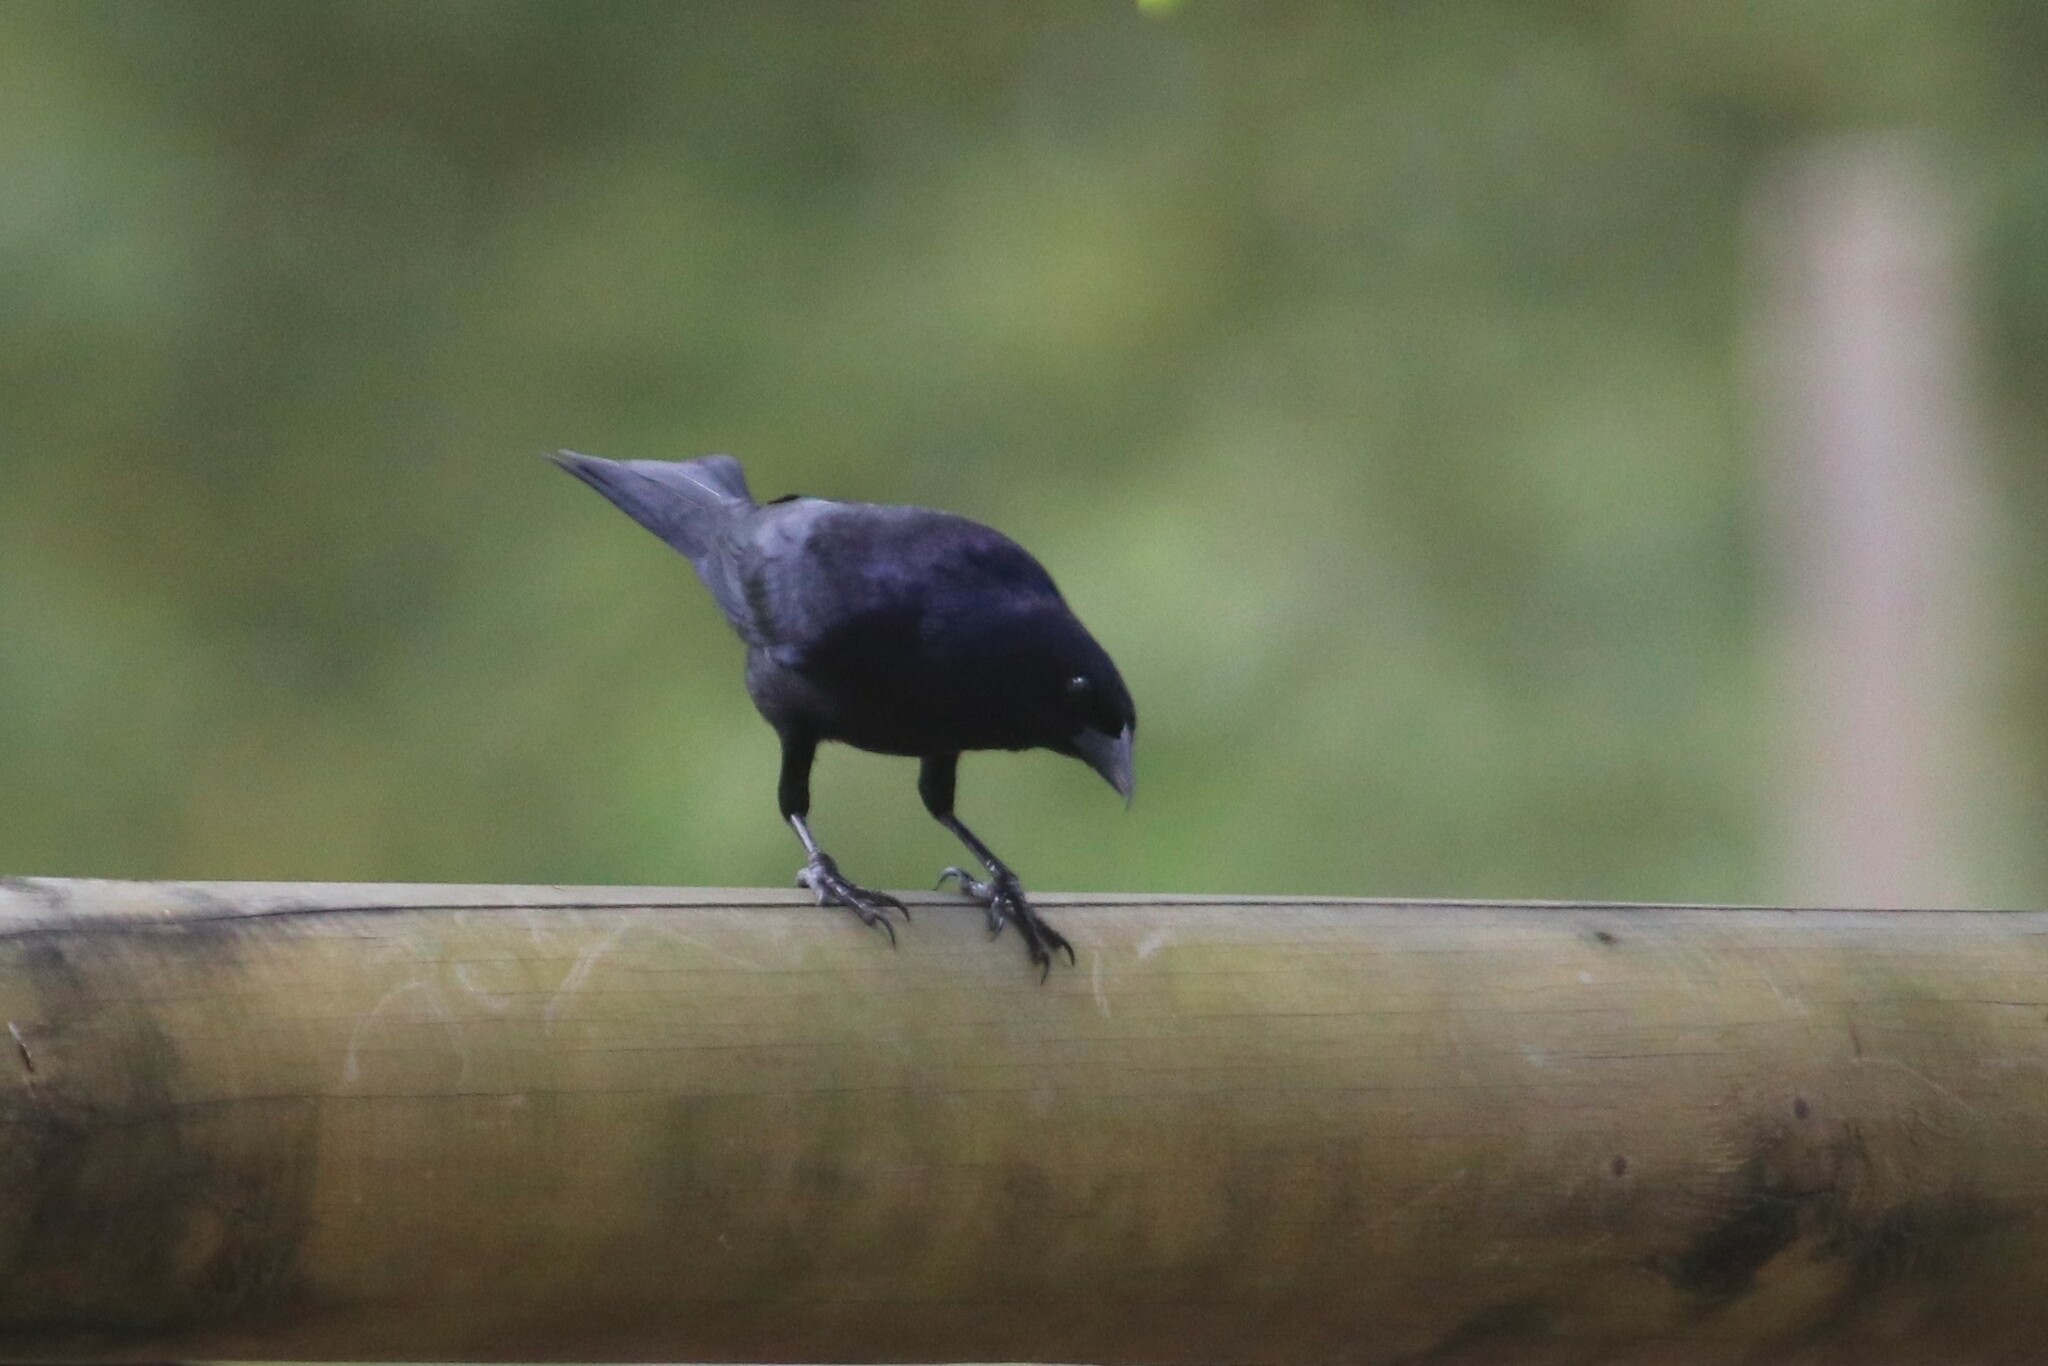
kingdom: Animalia
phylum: Chordata
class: Aves
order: Passeriformes
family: Icteridae
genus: Molothrus
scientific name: Molothrus bonariensis
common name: Shiny cowbird
